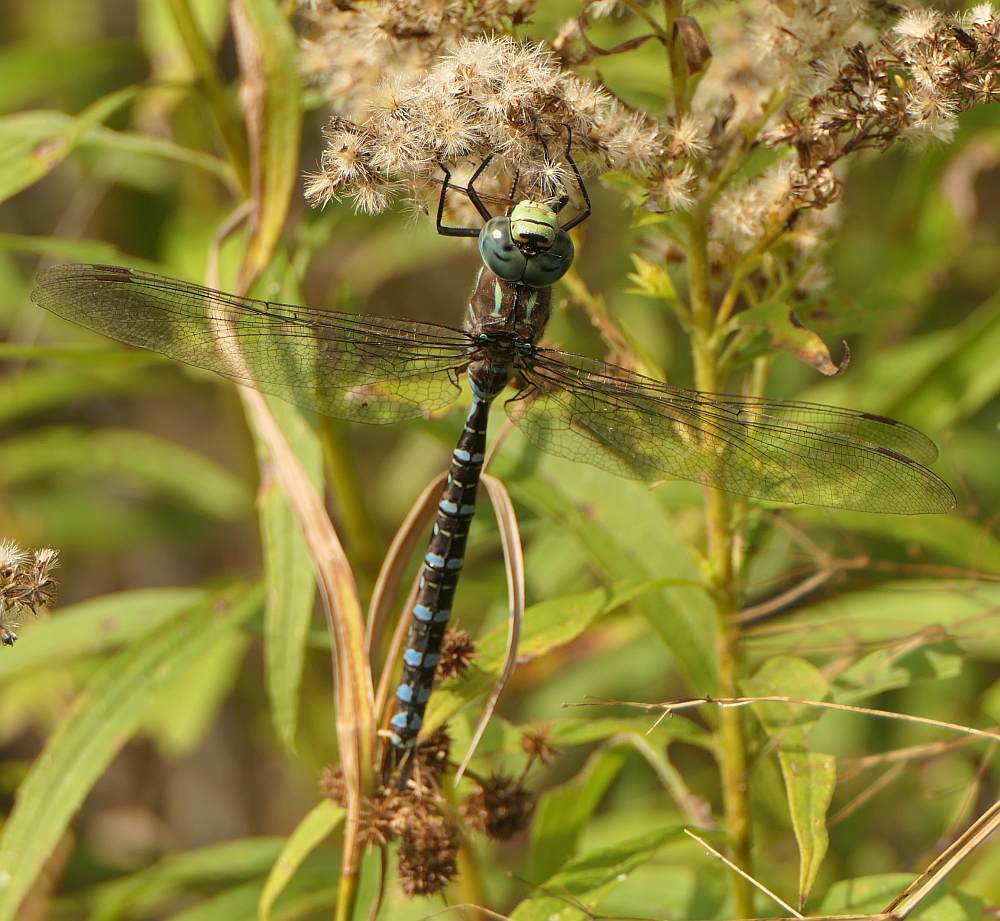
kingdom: Animalia
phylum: Arthropoda
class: Insecta
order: Odonata
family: Aeshnidae
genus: Aeshna
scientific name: Aeshna eremita
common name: Lake darner
